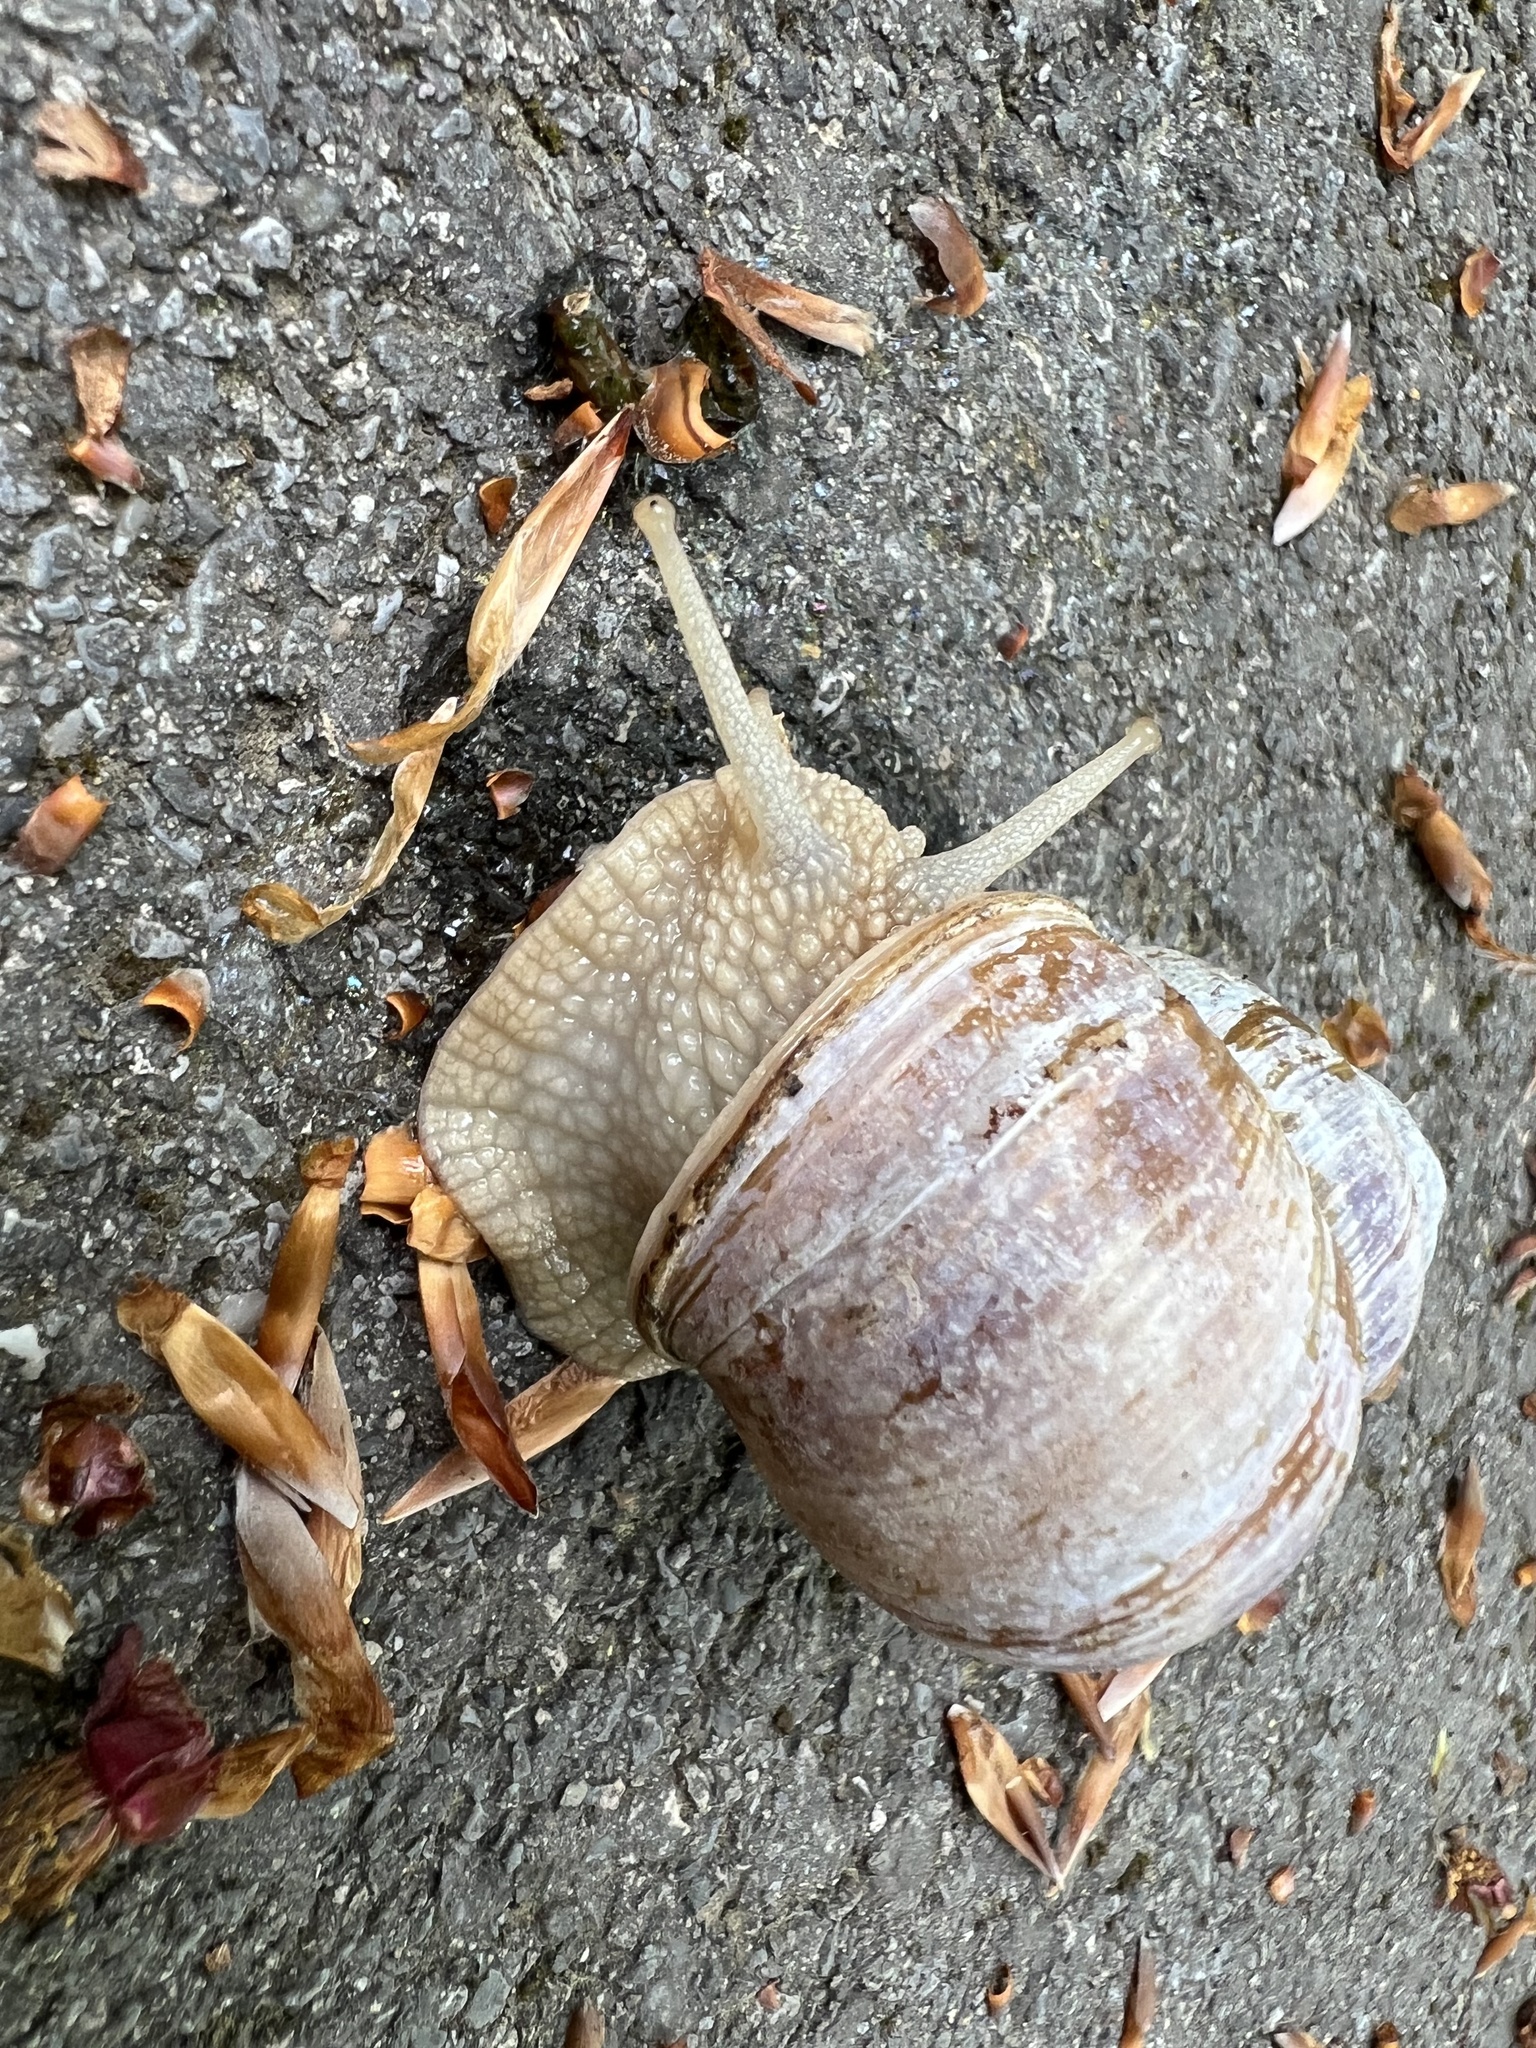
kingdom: Animalia
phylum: Mollusca
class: Gastropoda
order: Stylommatophora
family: Helicidae
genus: Helix
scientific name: Helix pomatia
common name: Roman snail
